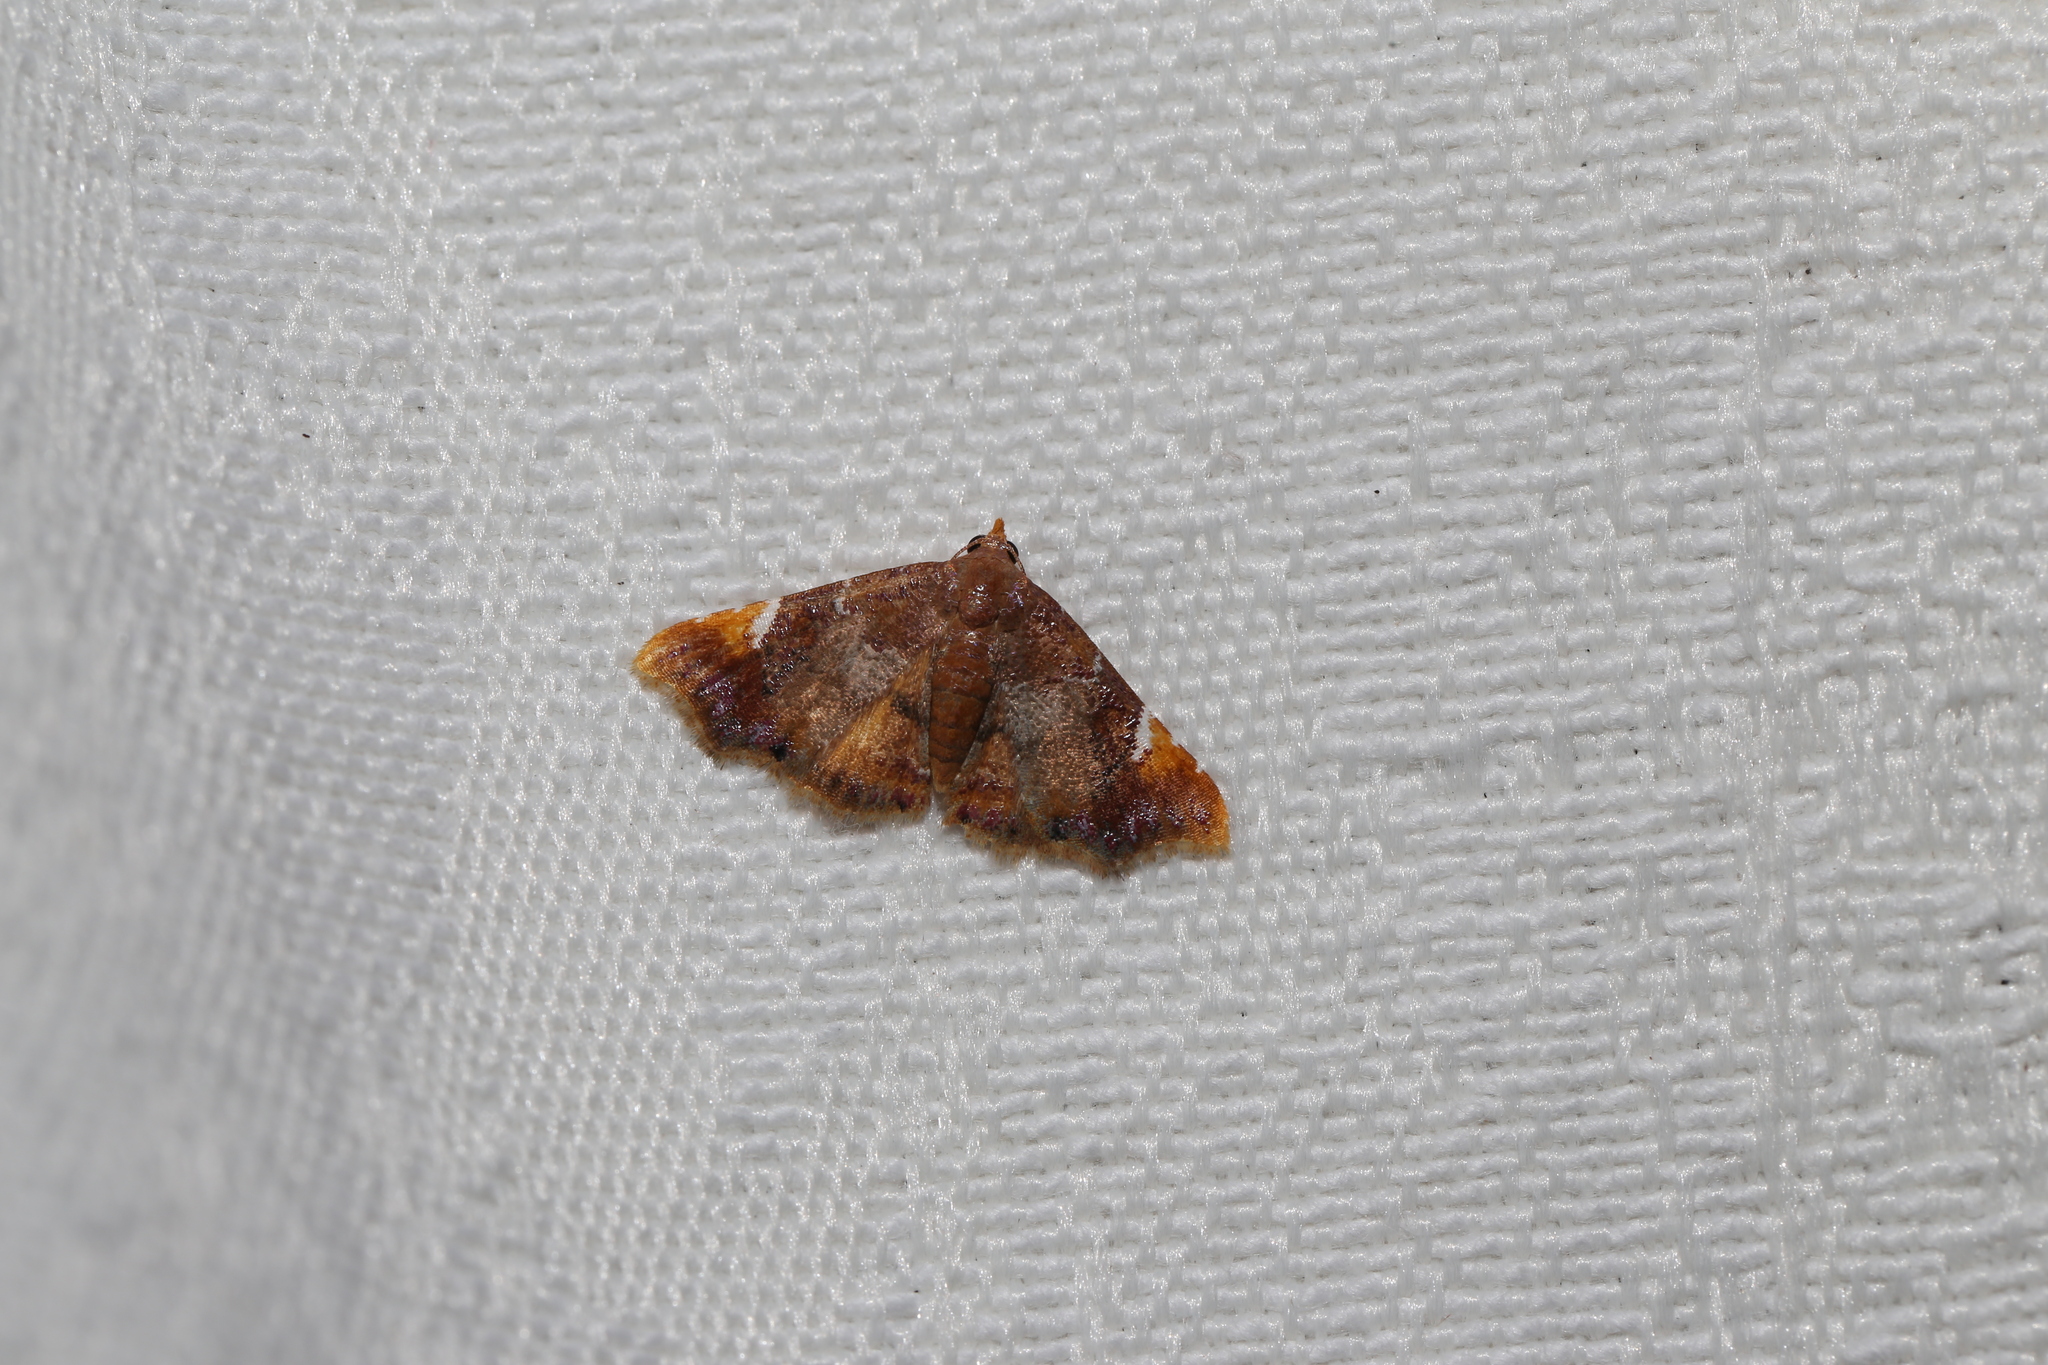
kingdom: Animalia
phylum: Arthropoda
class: Insecta
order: Lepidoptera
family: Erebidae
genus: Corgatha
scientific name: Corgatha drosera
